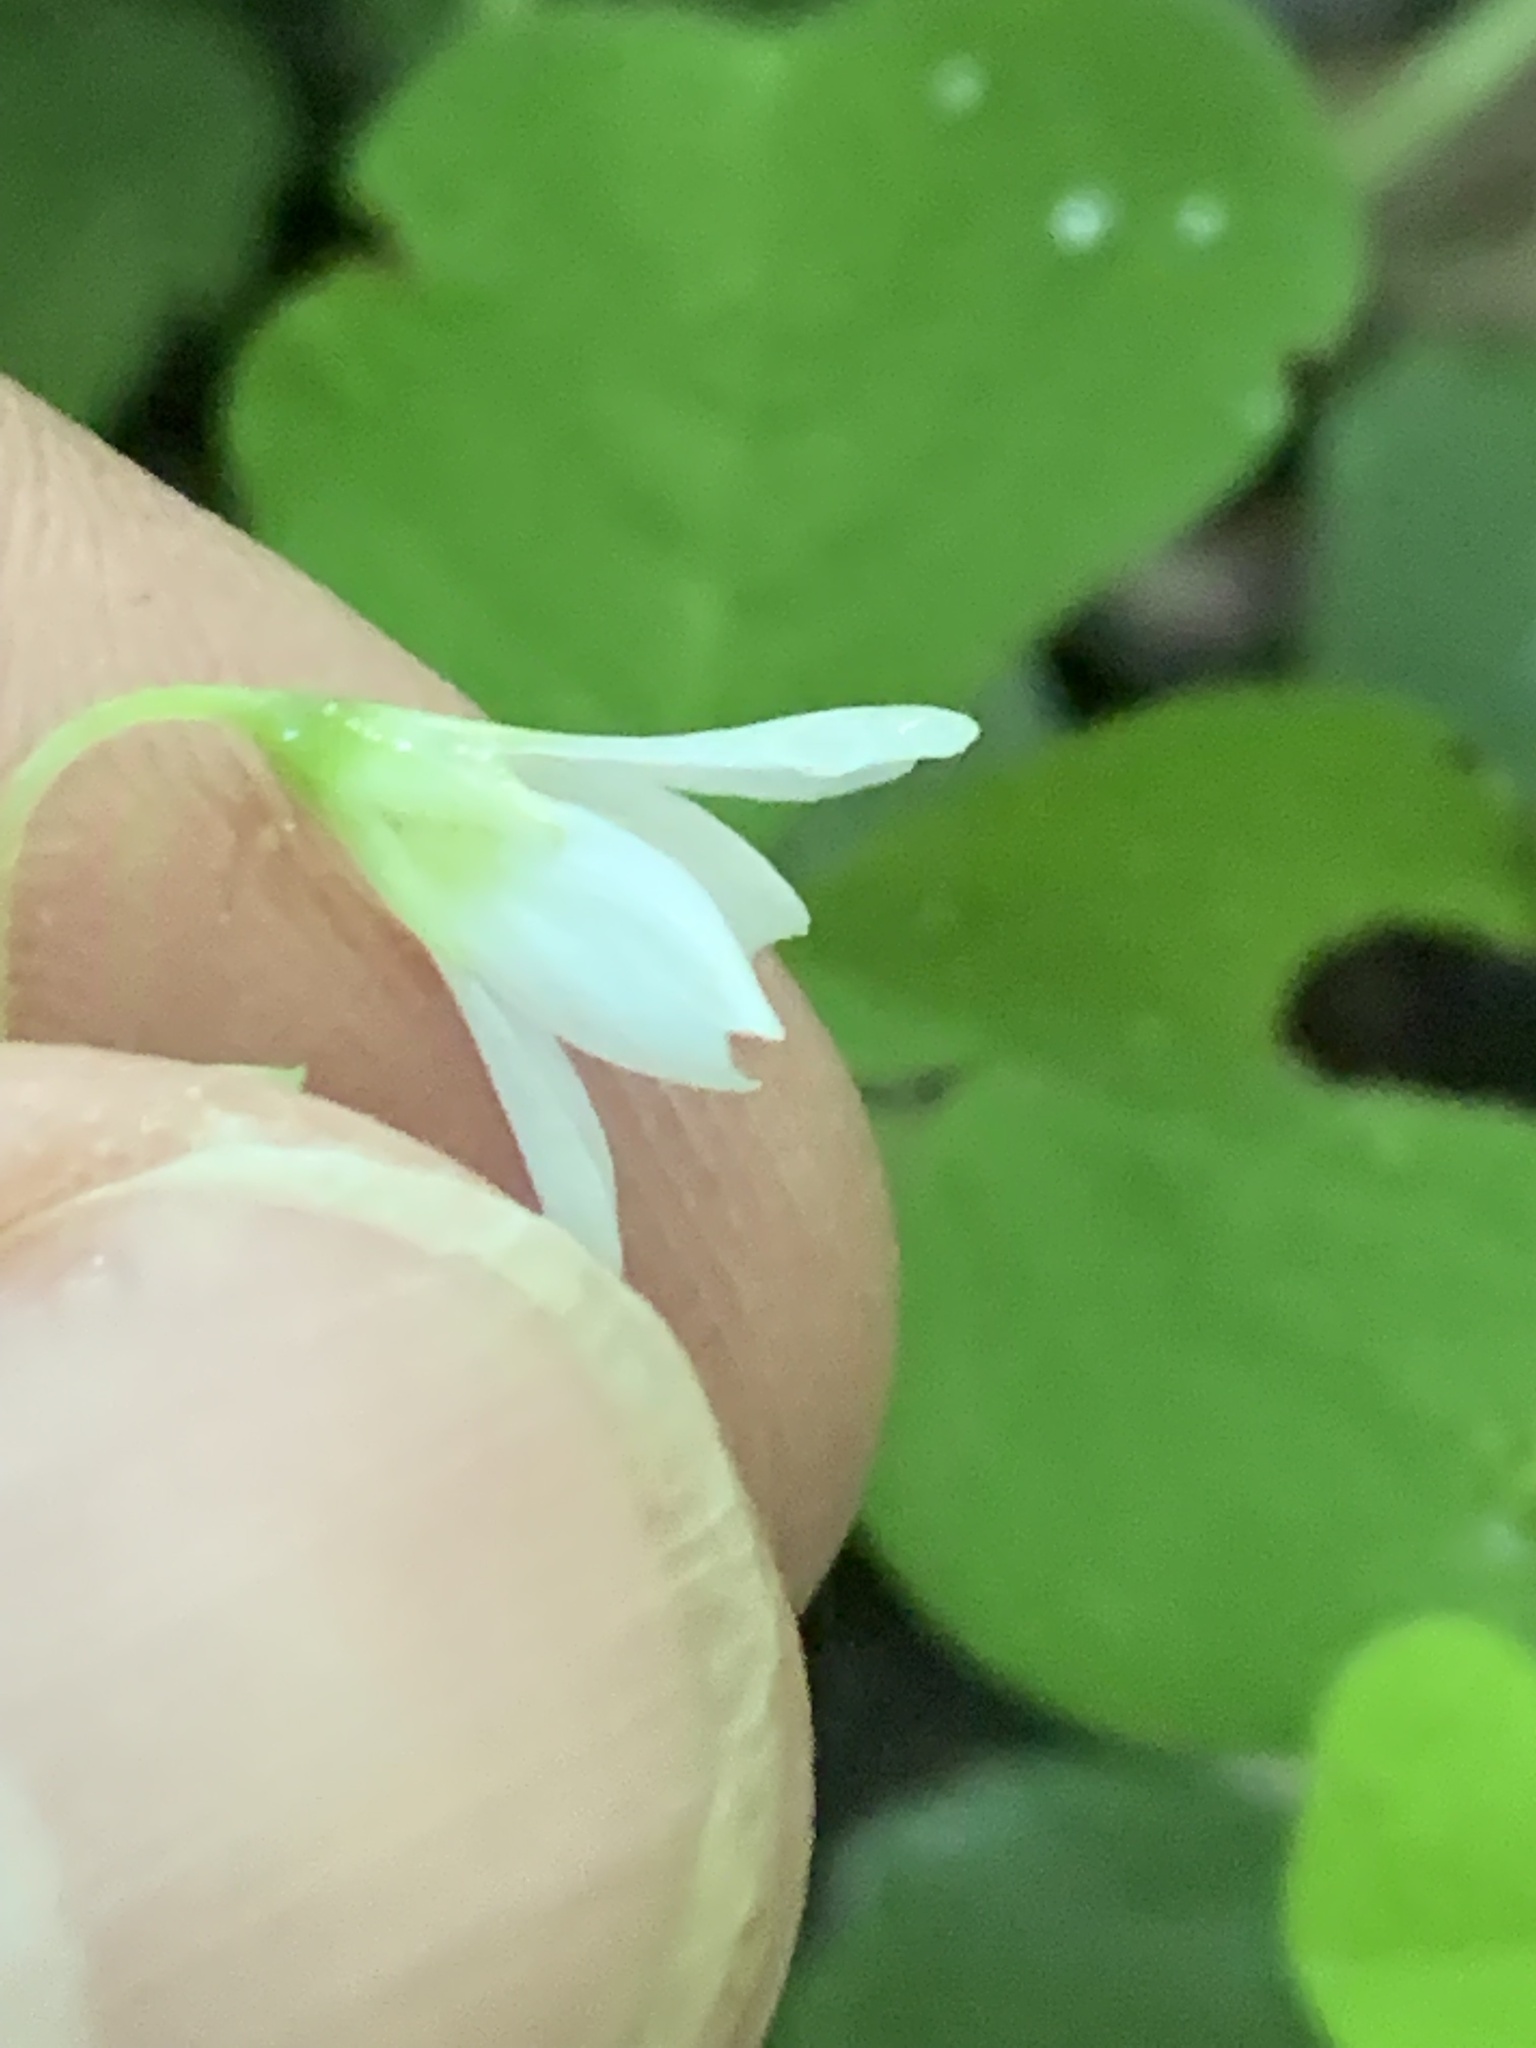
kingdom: Plantae
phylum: Tracheophyta
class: Magnoliopsida
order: Oxalidales
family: Oxalidaceae
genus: Oxalis
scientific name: Oxalis trilliifolia
